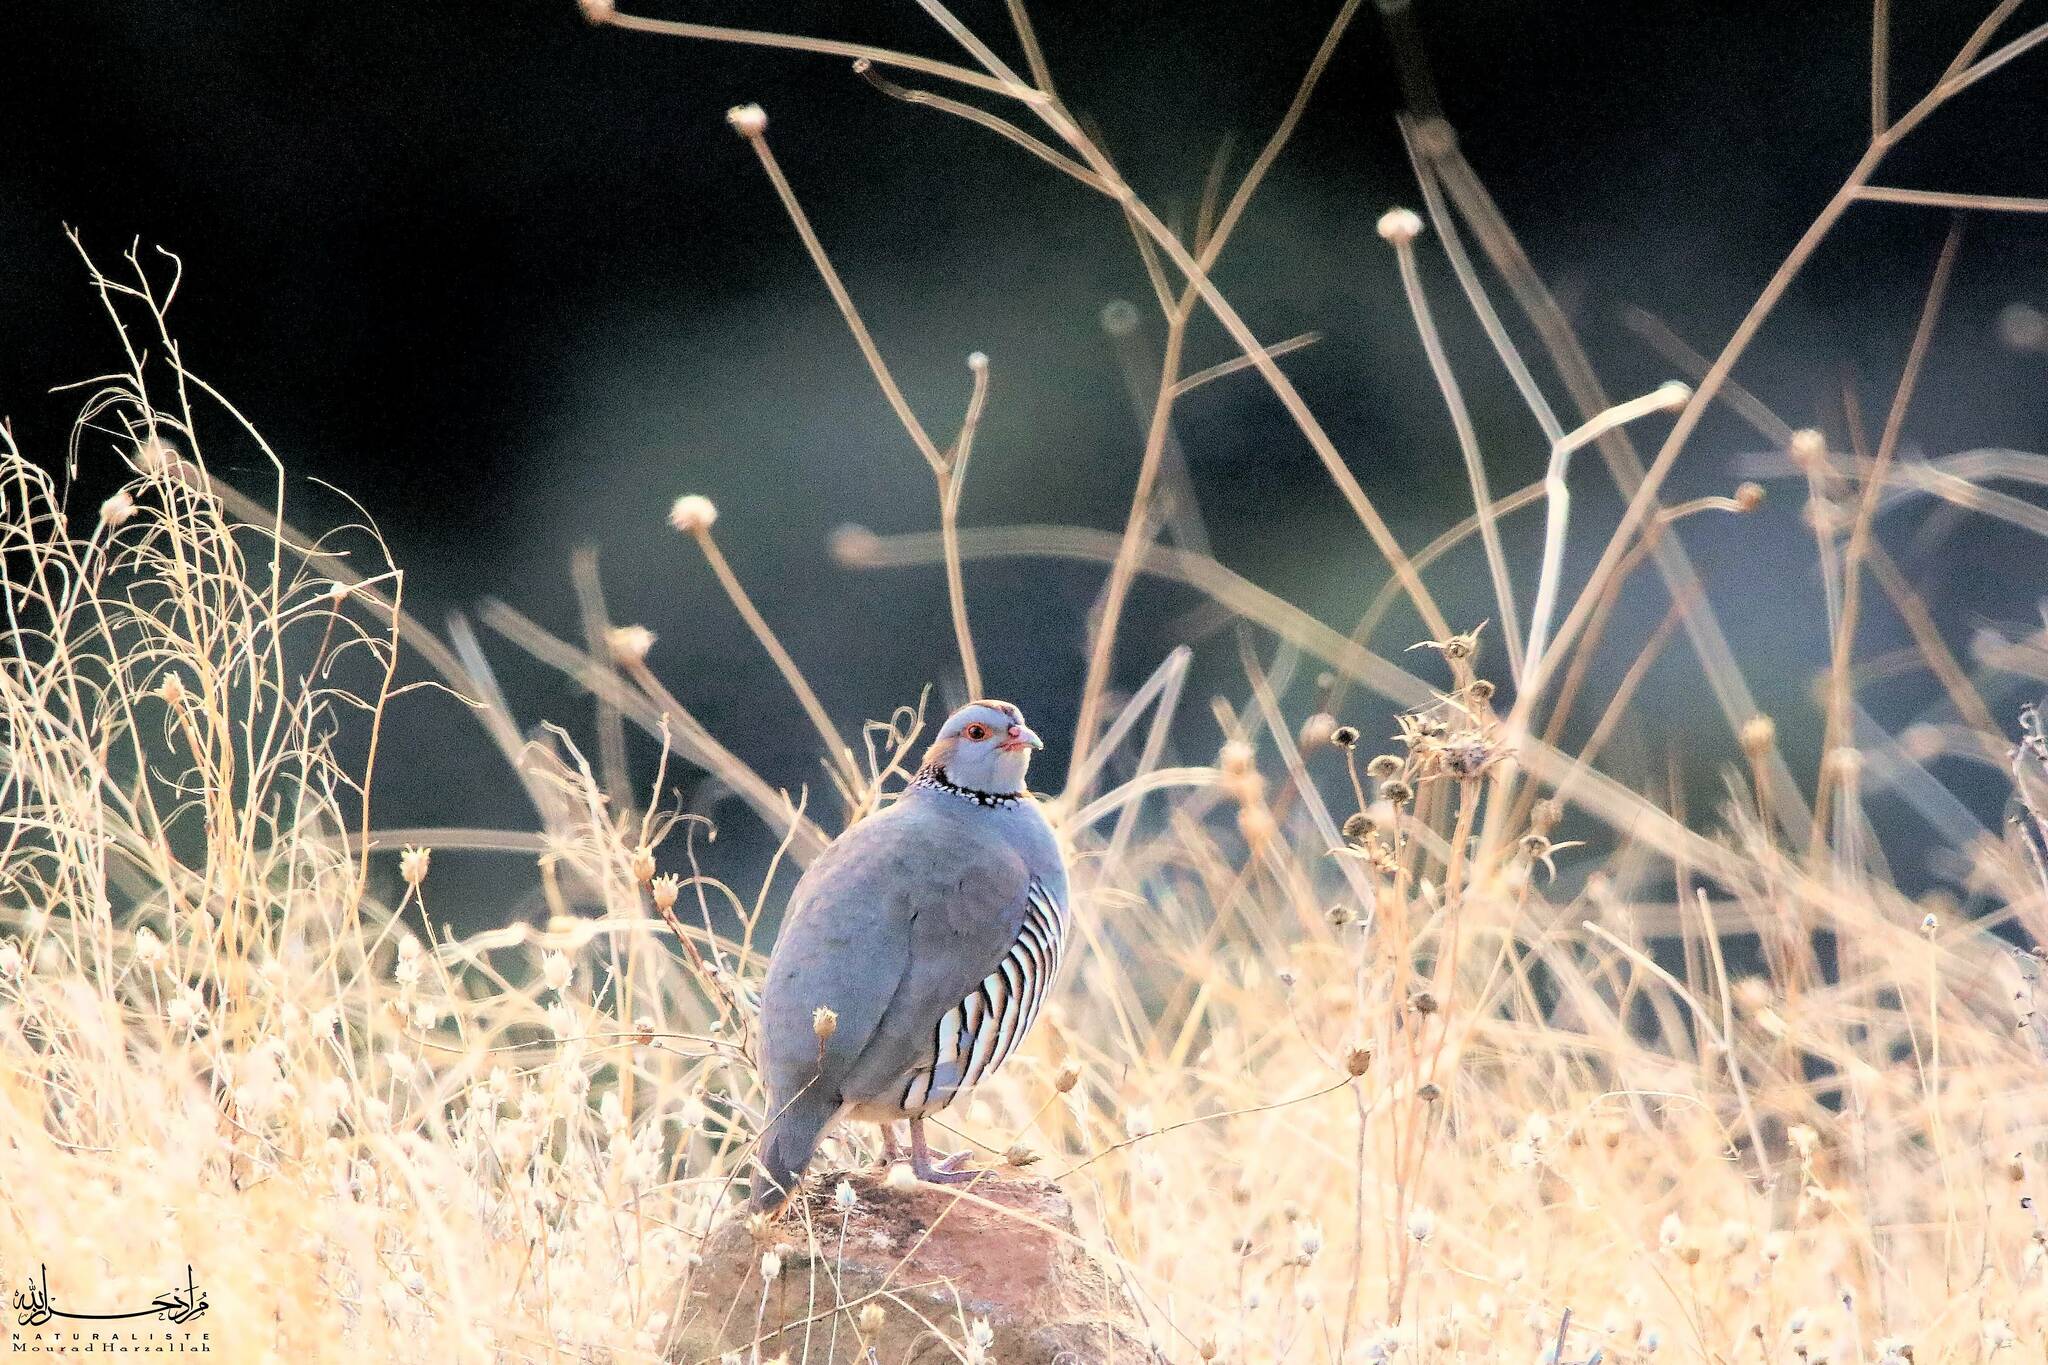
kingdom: Animalia
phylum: Chordata
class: Aves
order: Galliformes
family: Phasianidae
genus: Alectoris
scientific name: Alectoris barbara
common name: Barbary partridge
